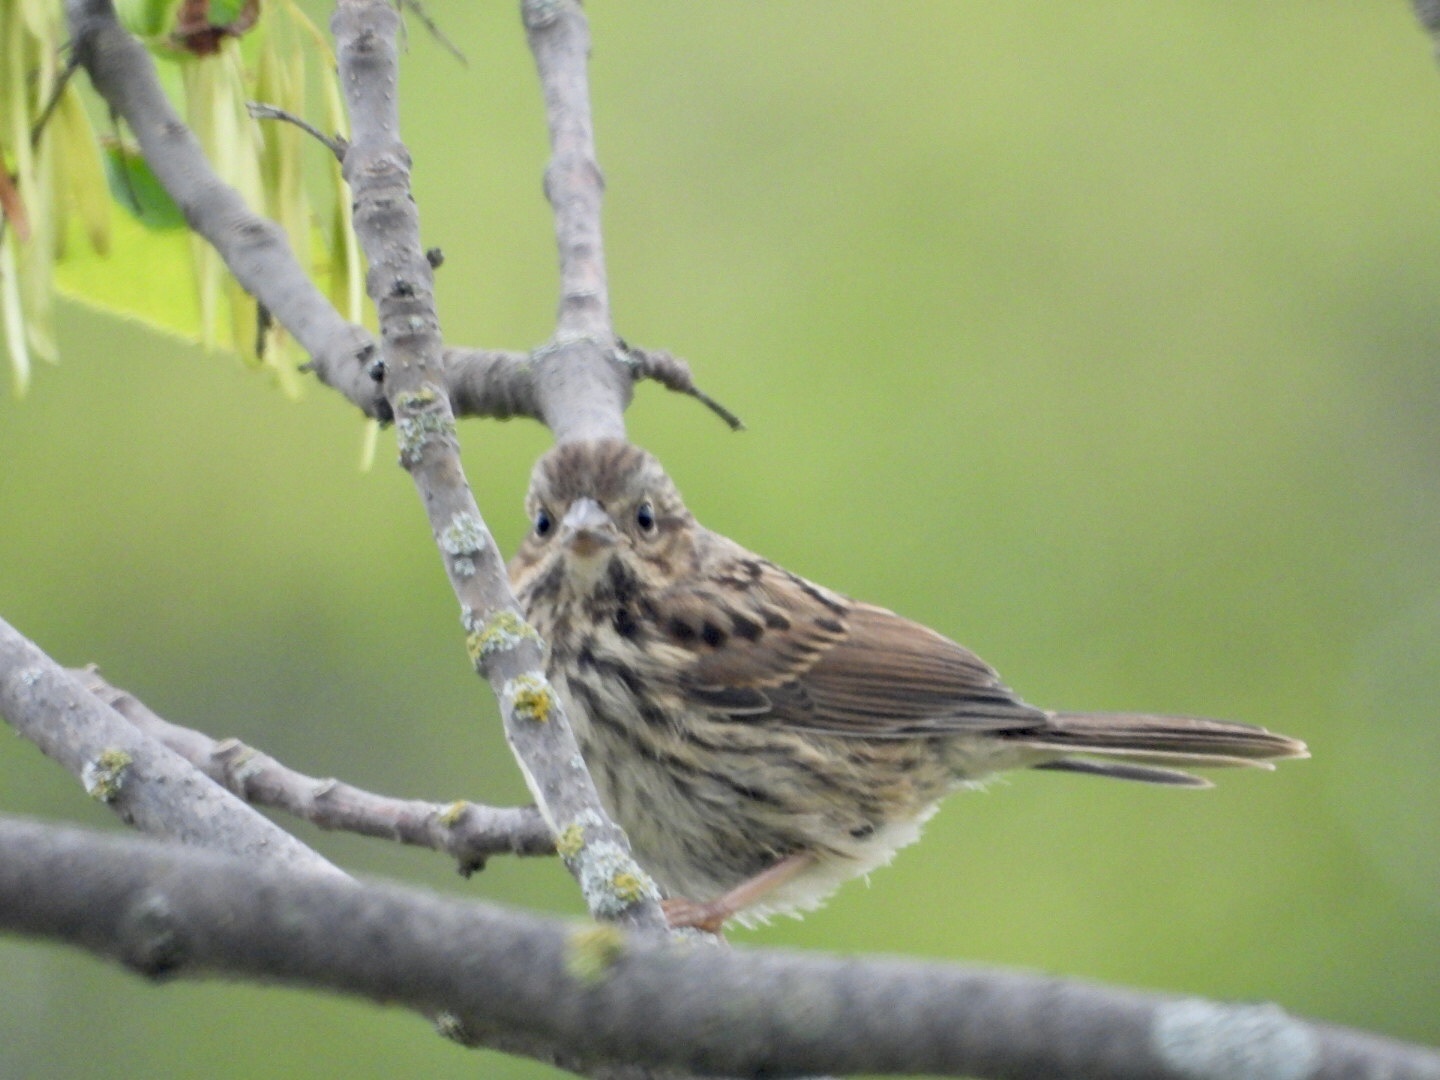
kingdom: Animalia
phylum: Chordata
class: Aves
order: Passeriformes
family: Passerellidae
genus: Melospiza
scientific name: Melospiza melodia
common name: Song sparrow
